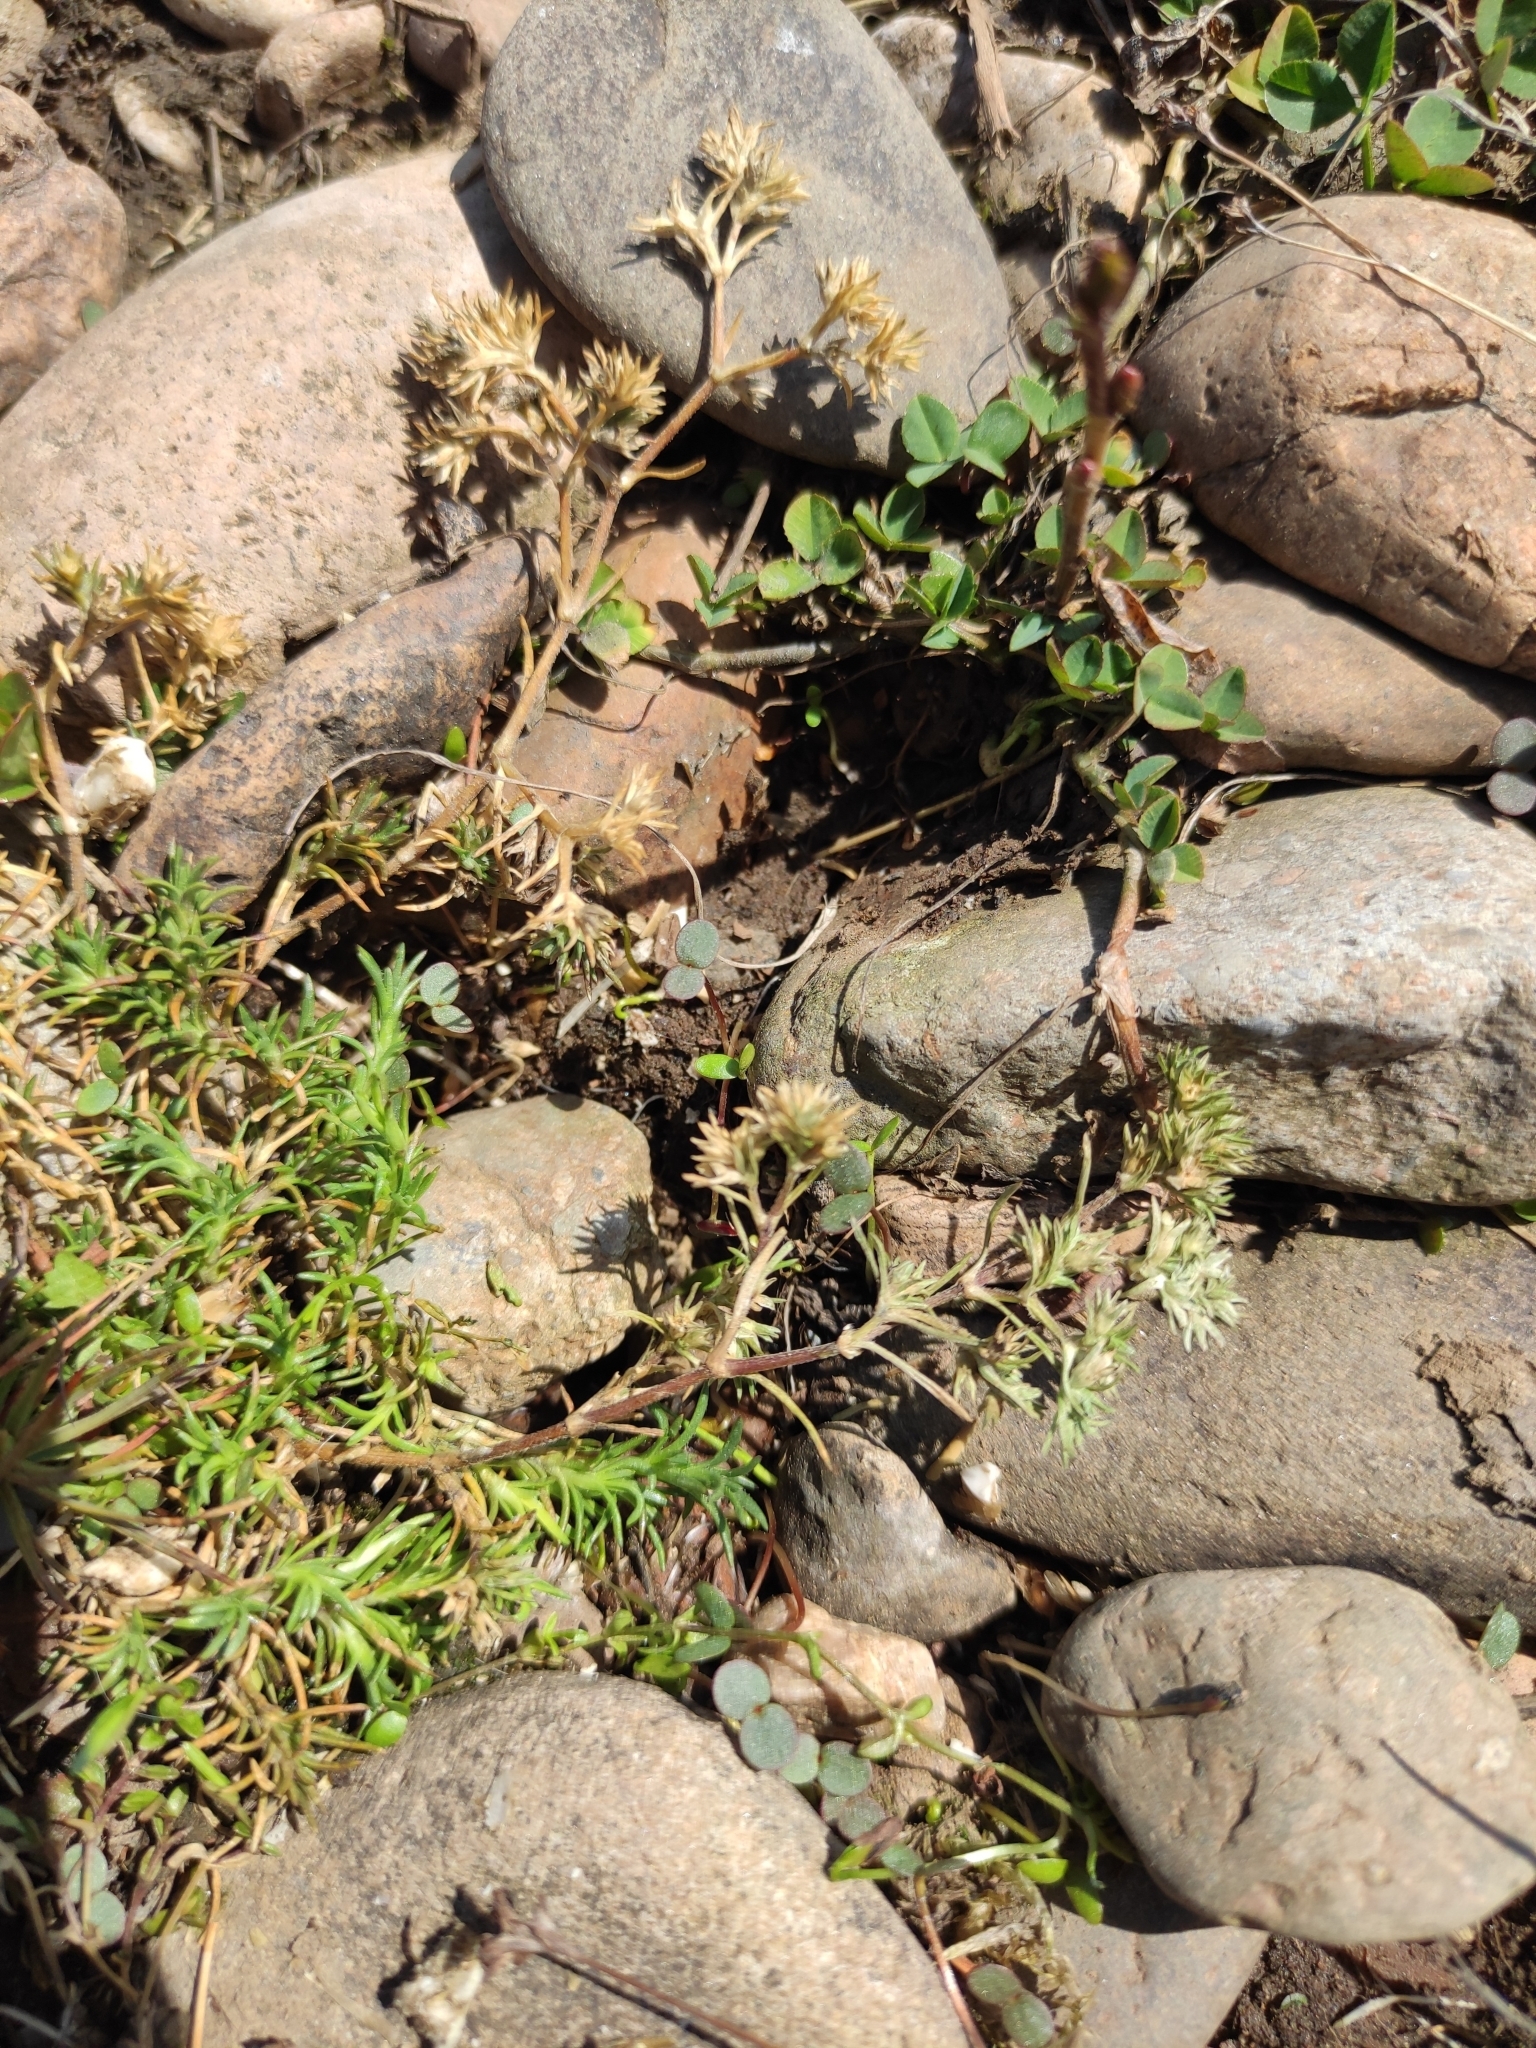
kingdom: Plantae
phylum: Tracheophyta
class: Magnoliopsida
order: Caryophyllales
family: Caryophyllaceae
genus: Scleranthus
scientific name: Scleranthus annuus
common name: Annual knawel
